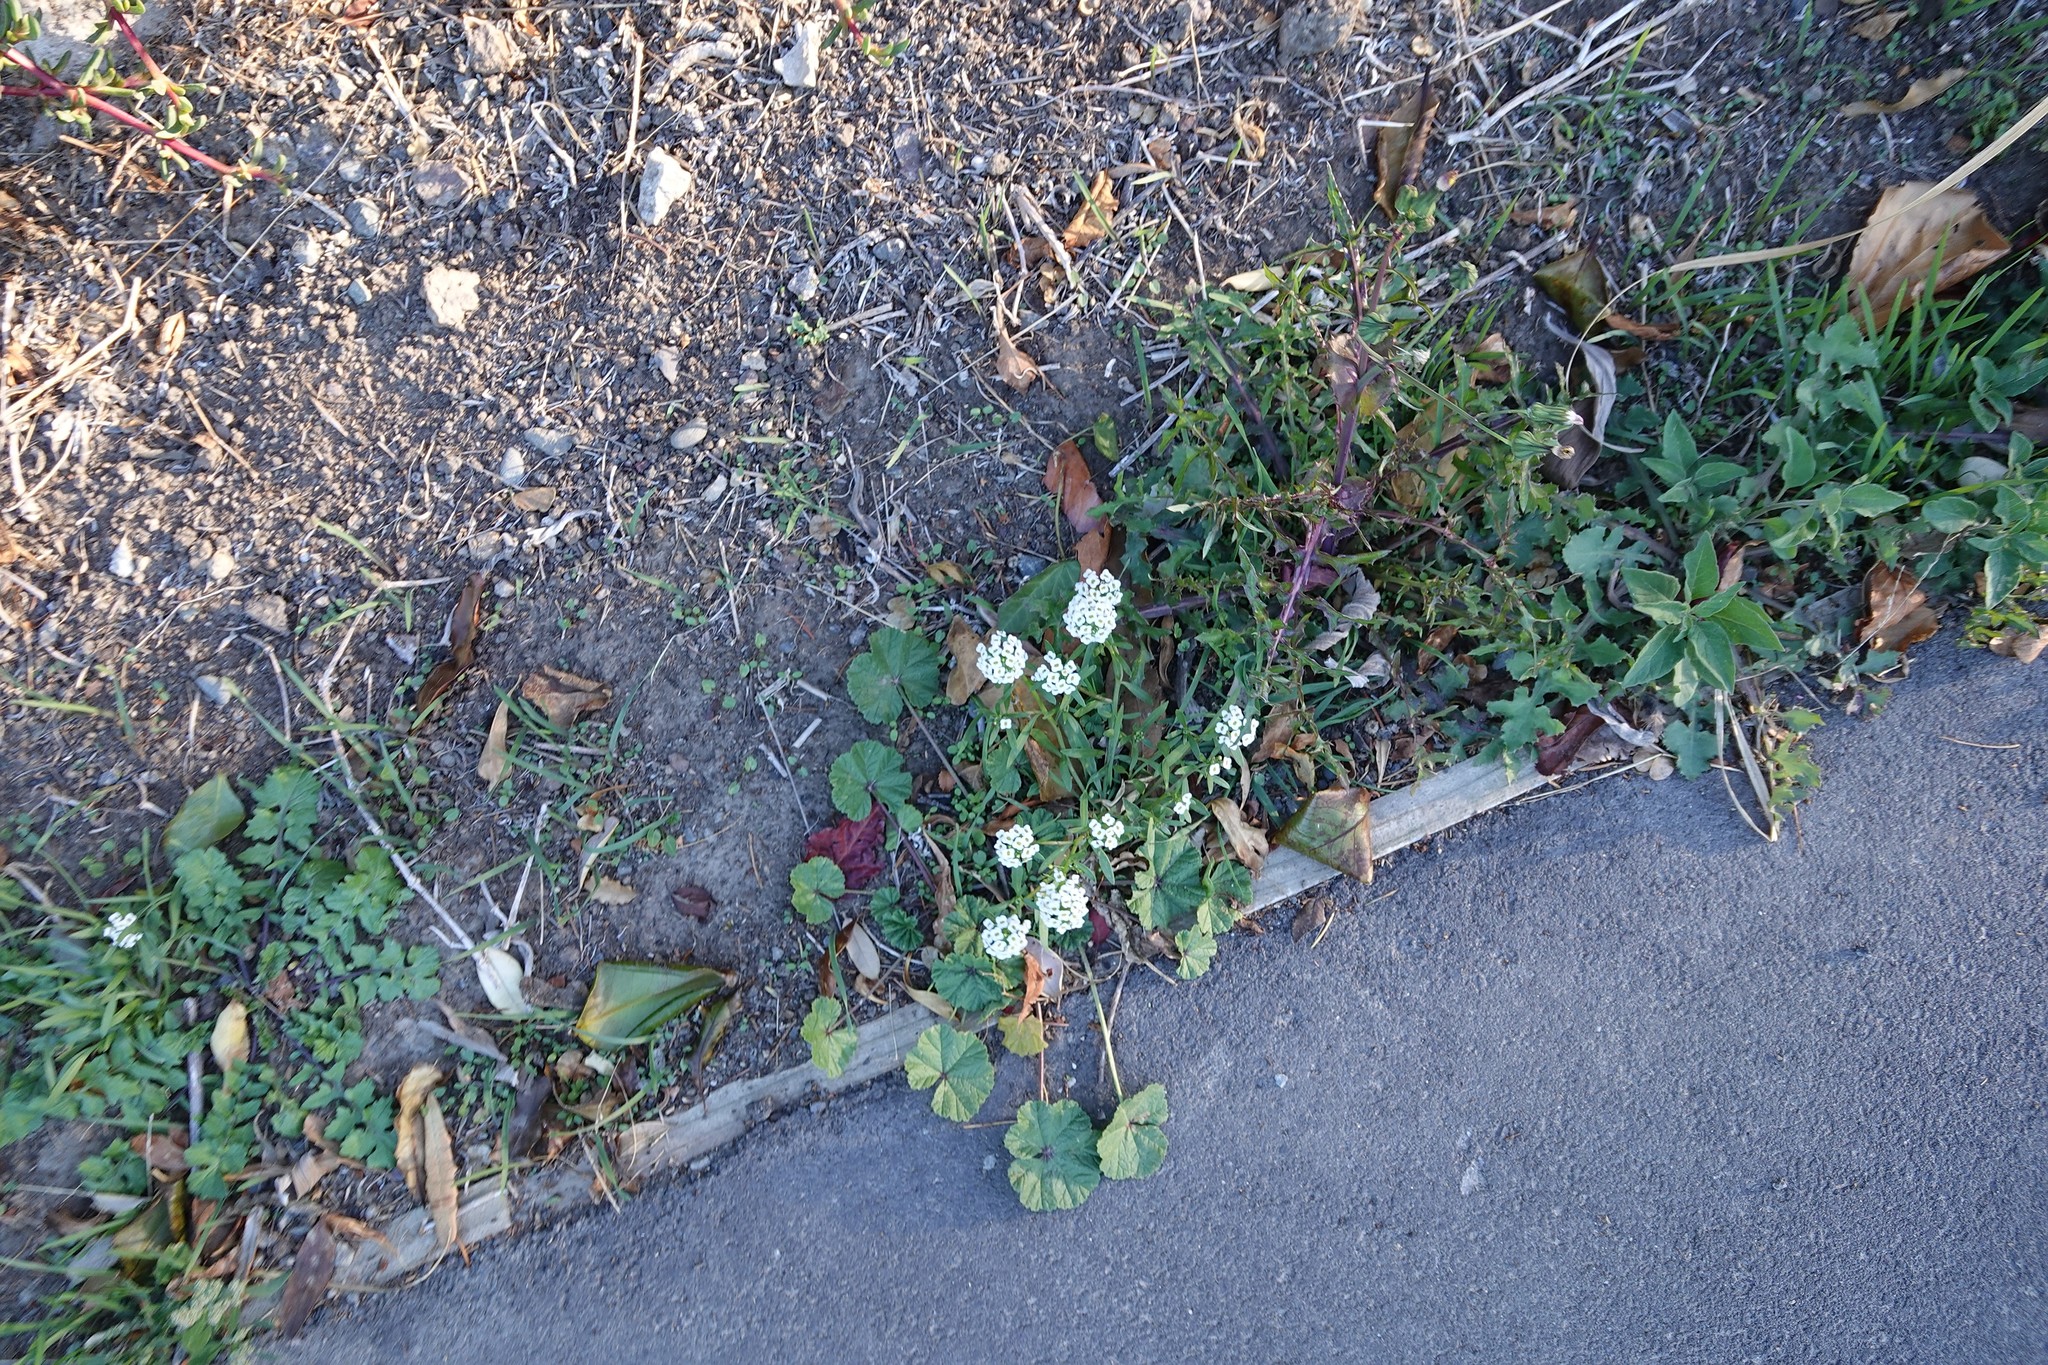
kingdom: Plantae
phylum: Tracheophyta
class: Magnoliopsida
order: Brassicales
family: Brassicaceae
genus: Lobularia
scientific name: Lobularia maritima
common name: Sweet alison
